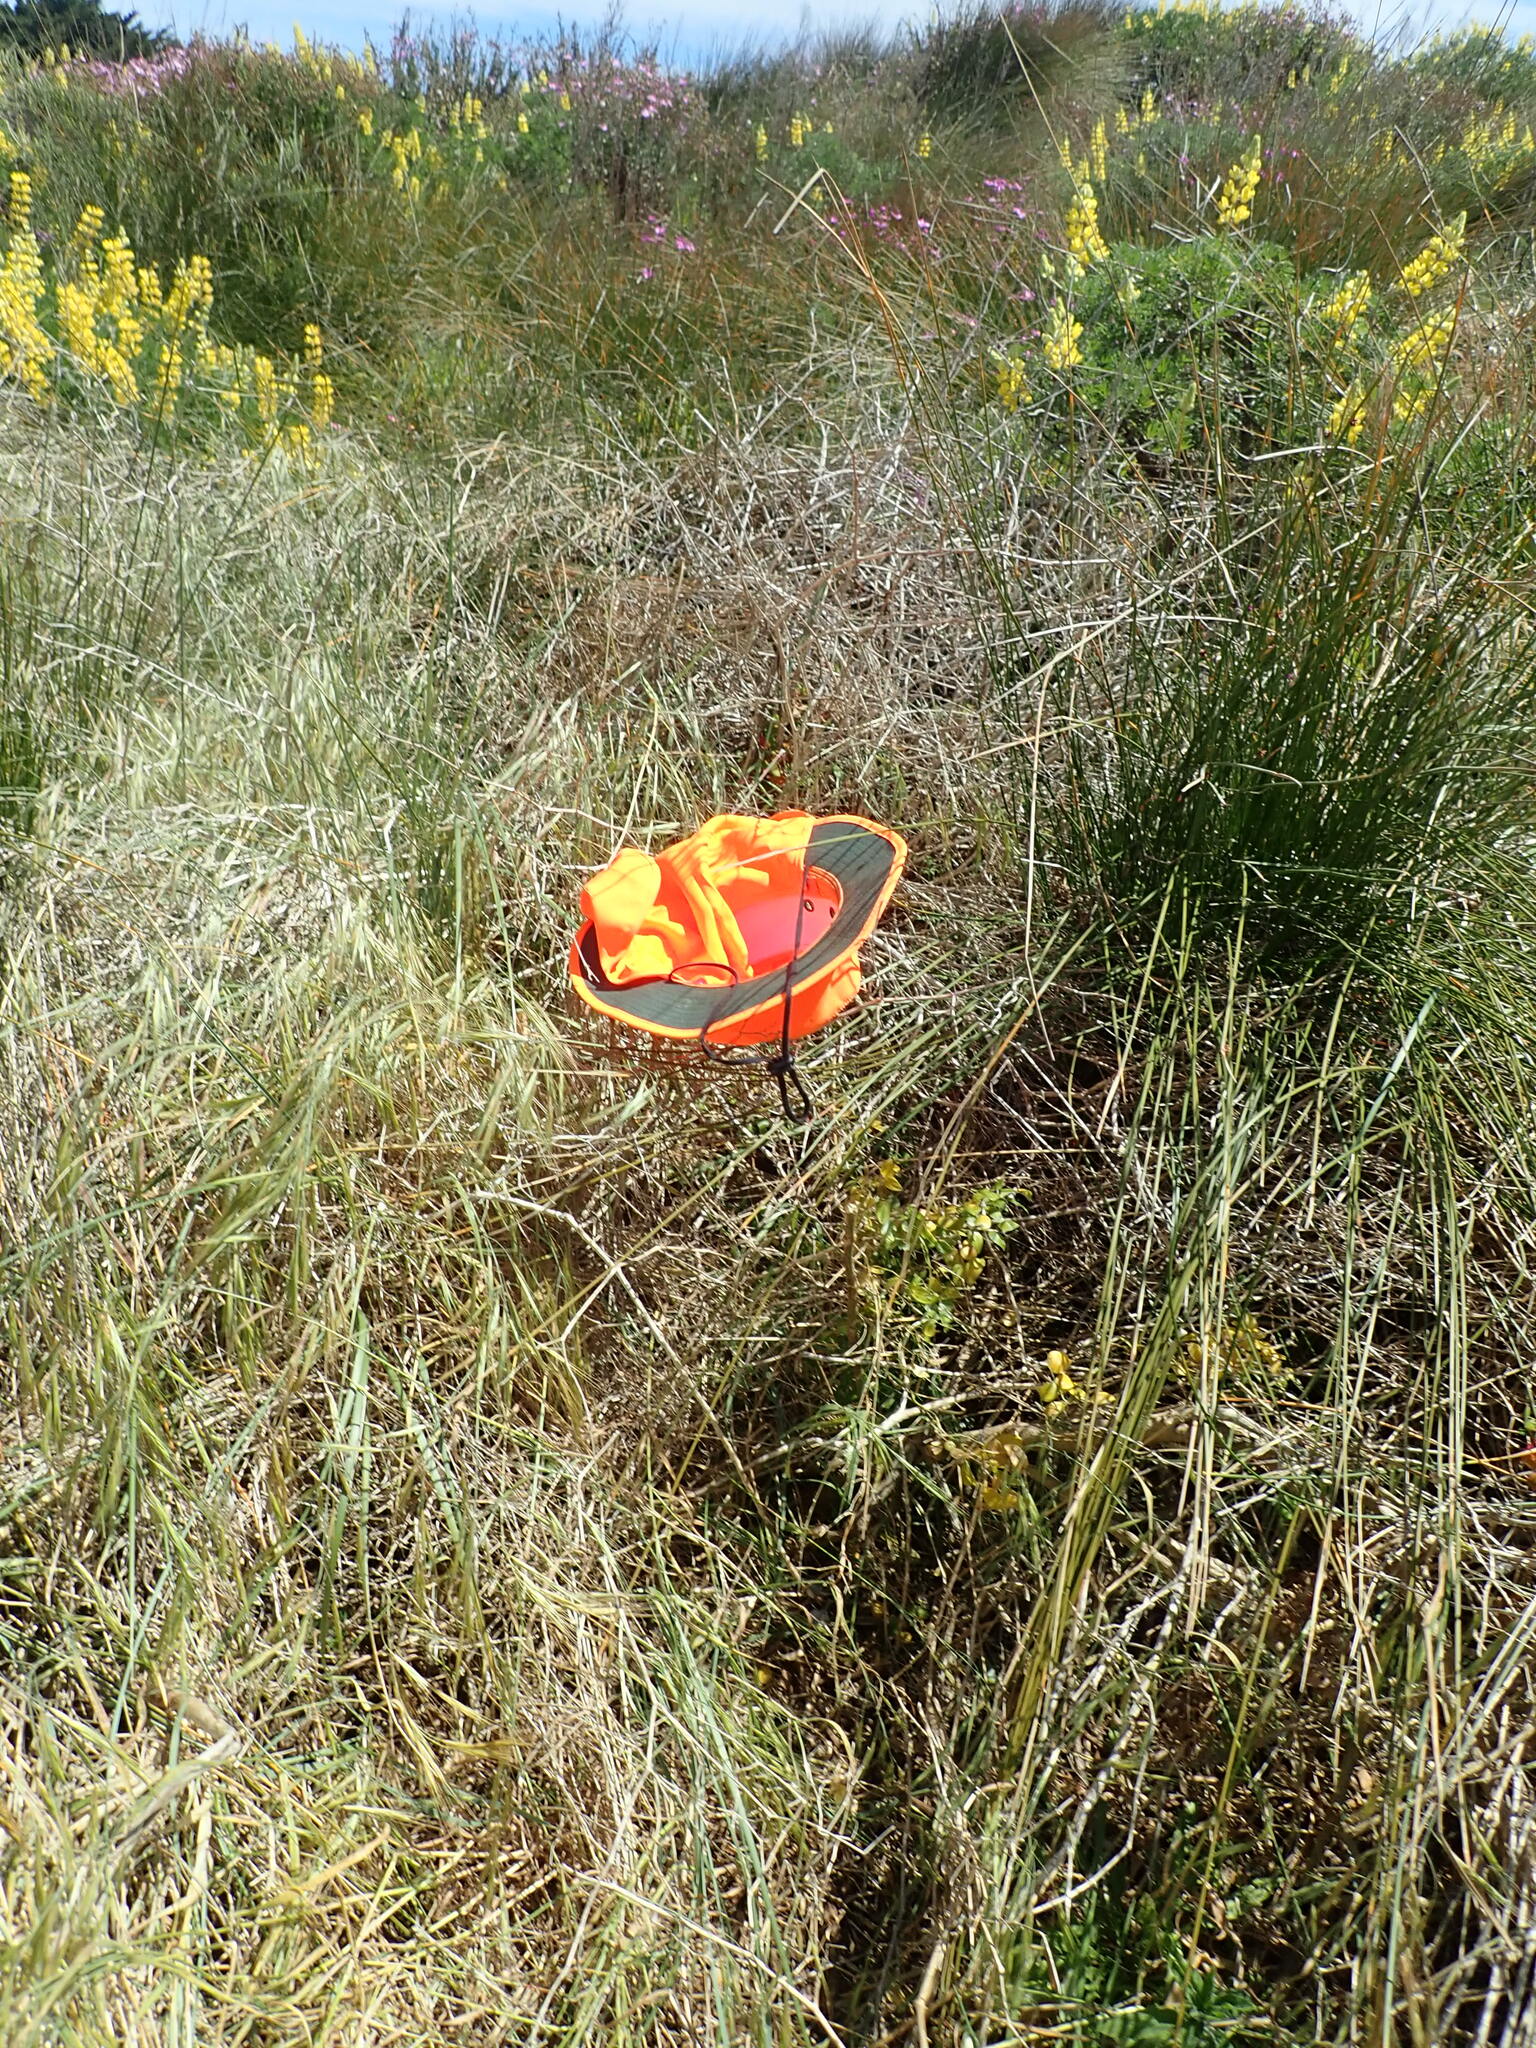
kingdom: Plantae
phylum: Tracheophyta
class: Liliopsida
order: Poales
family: Poaceae
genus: Bromus
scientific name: Bromus diandrus
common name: Ripgut brome
